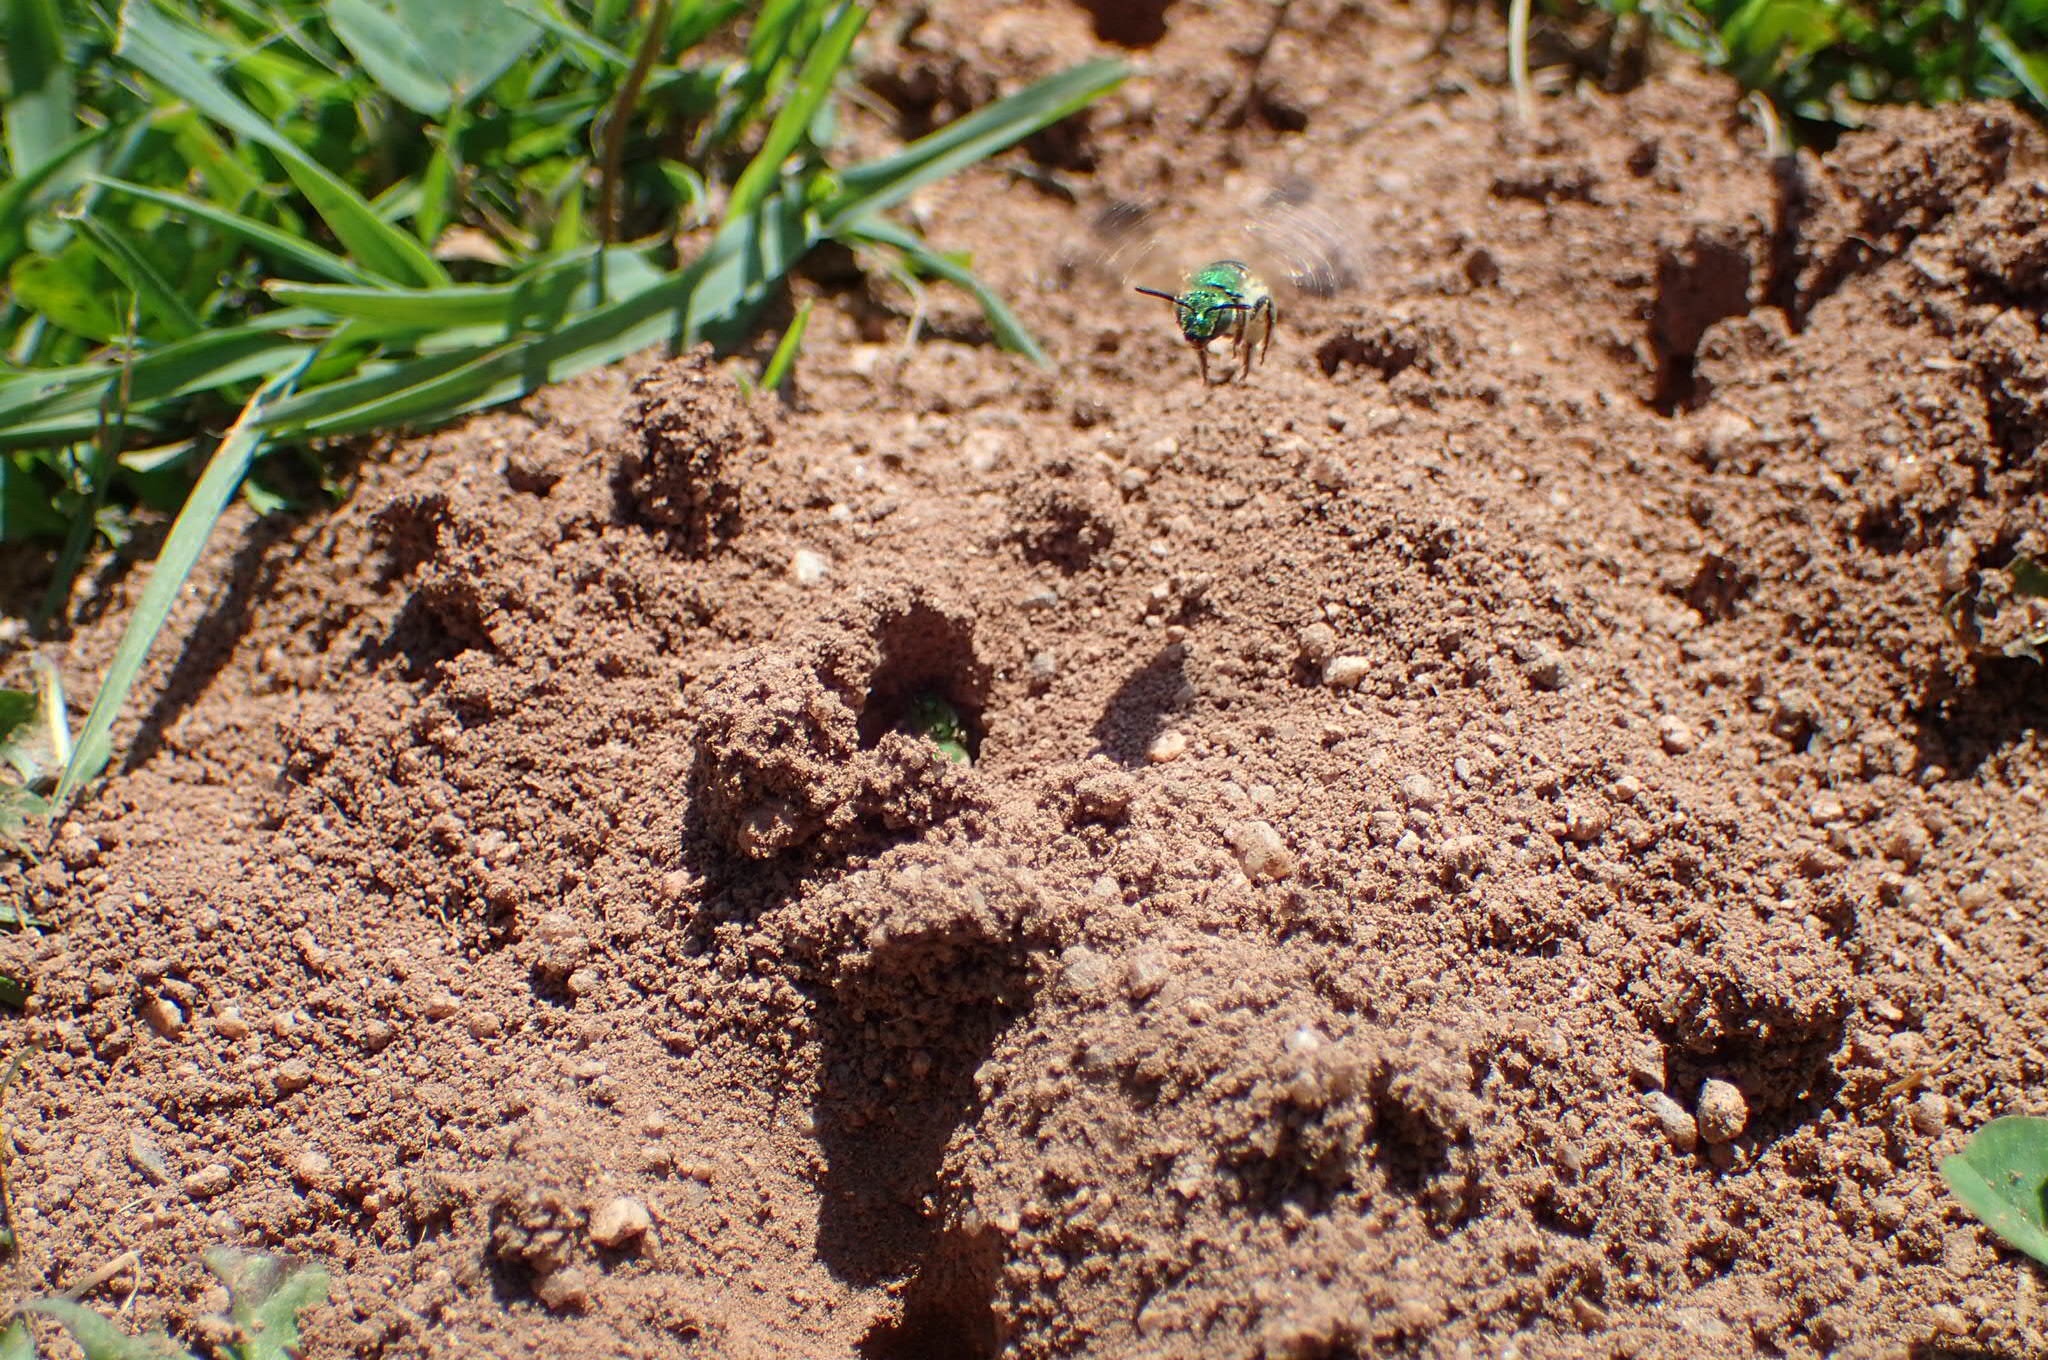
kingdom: Animalia
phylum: Arthropoda
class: Insecta
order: Hymenoptera
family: Halictidae
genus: Agapostemon
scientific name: Agapostemon virescens
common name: Bicolored striped sweat bee
